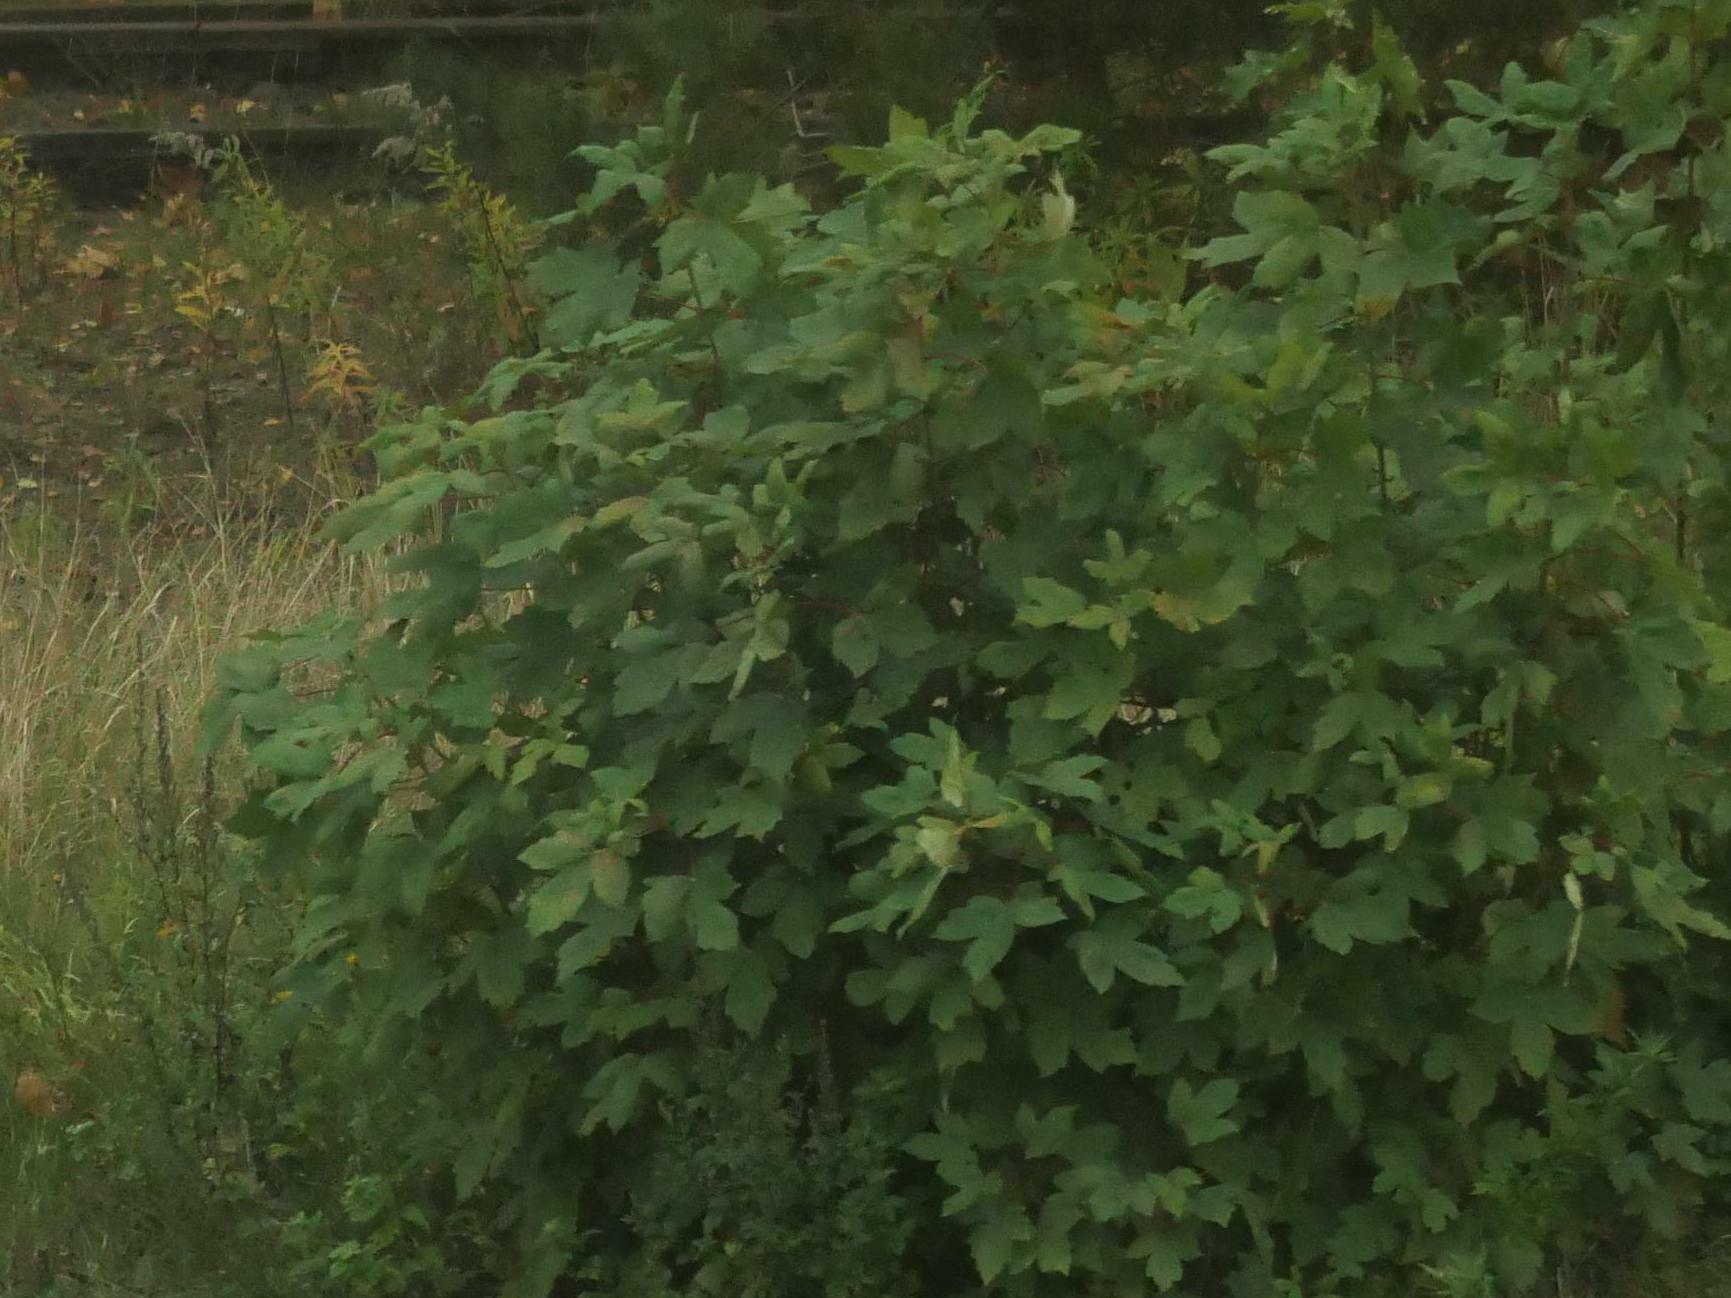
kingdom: Plantae
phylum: Tracheophyta
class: Magnoliopsida
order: Sapindales
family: Sapindaceae
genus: Acer
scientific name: Acer pseudoplatanus
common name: Sycamore
